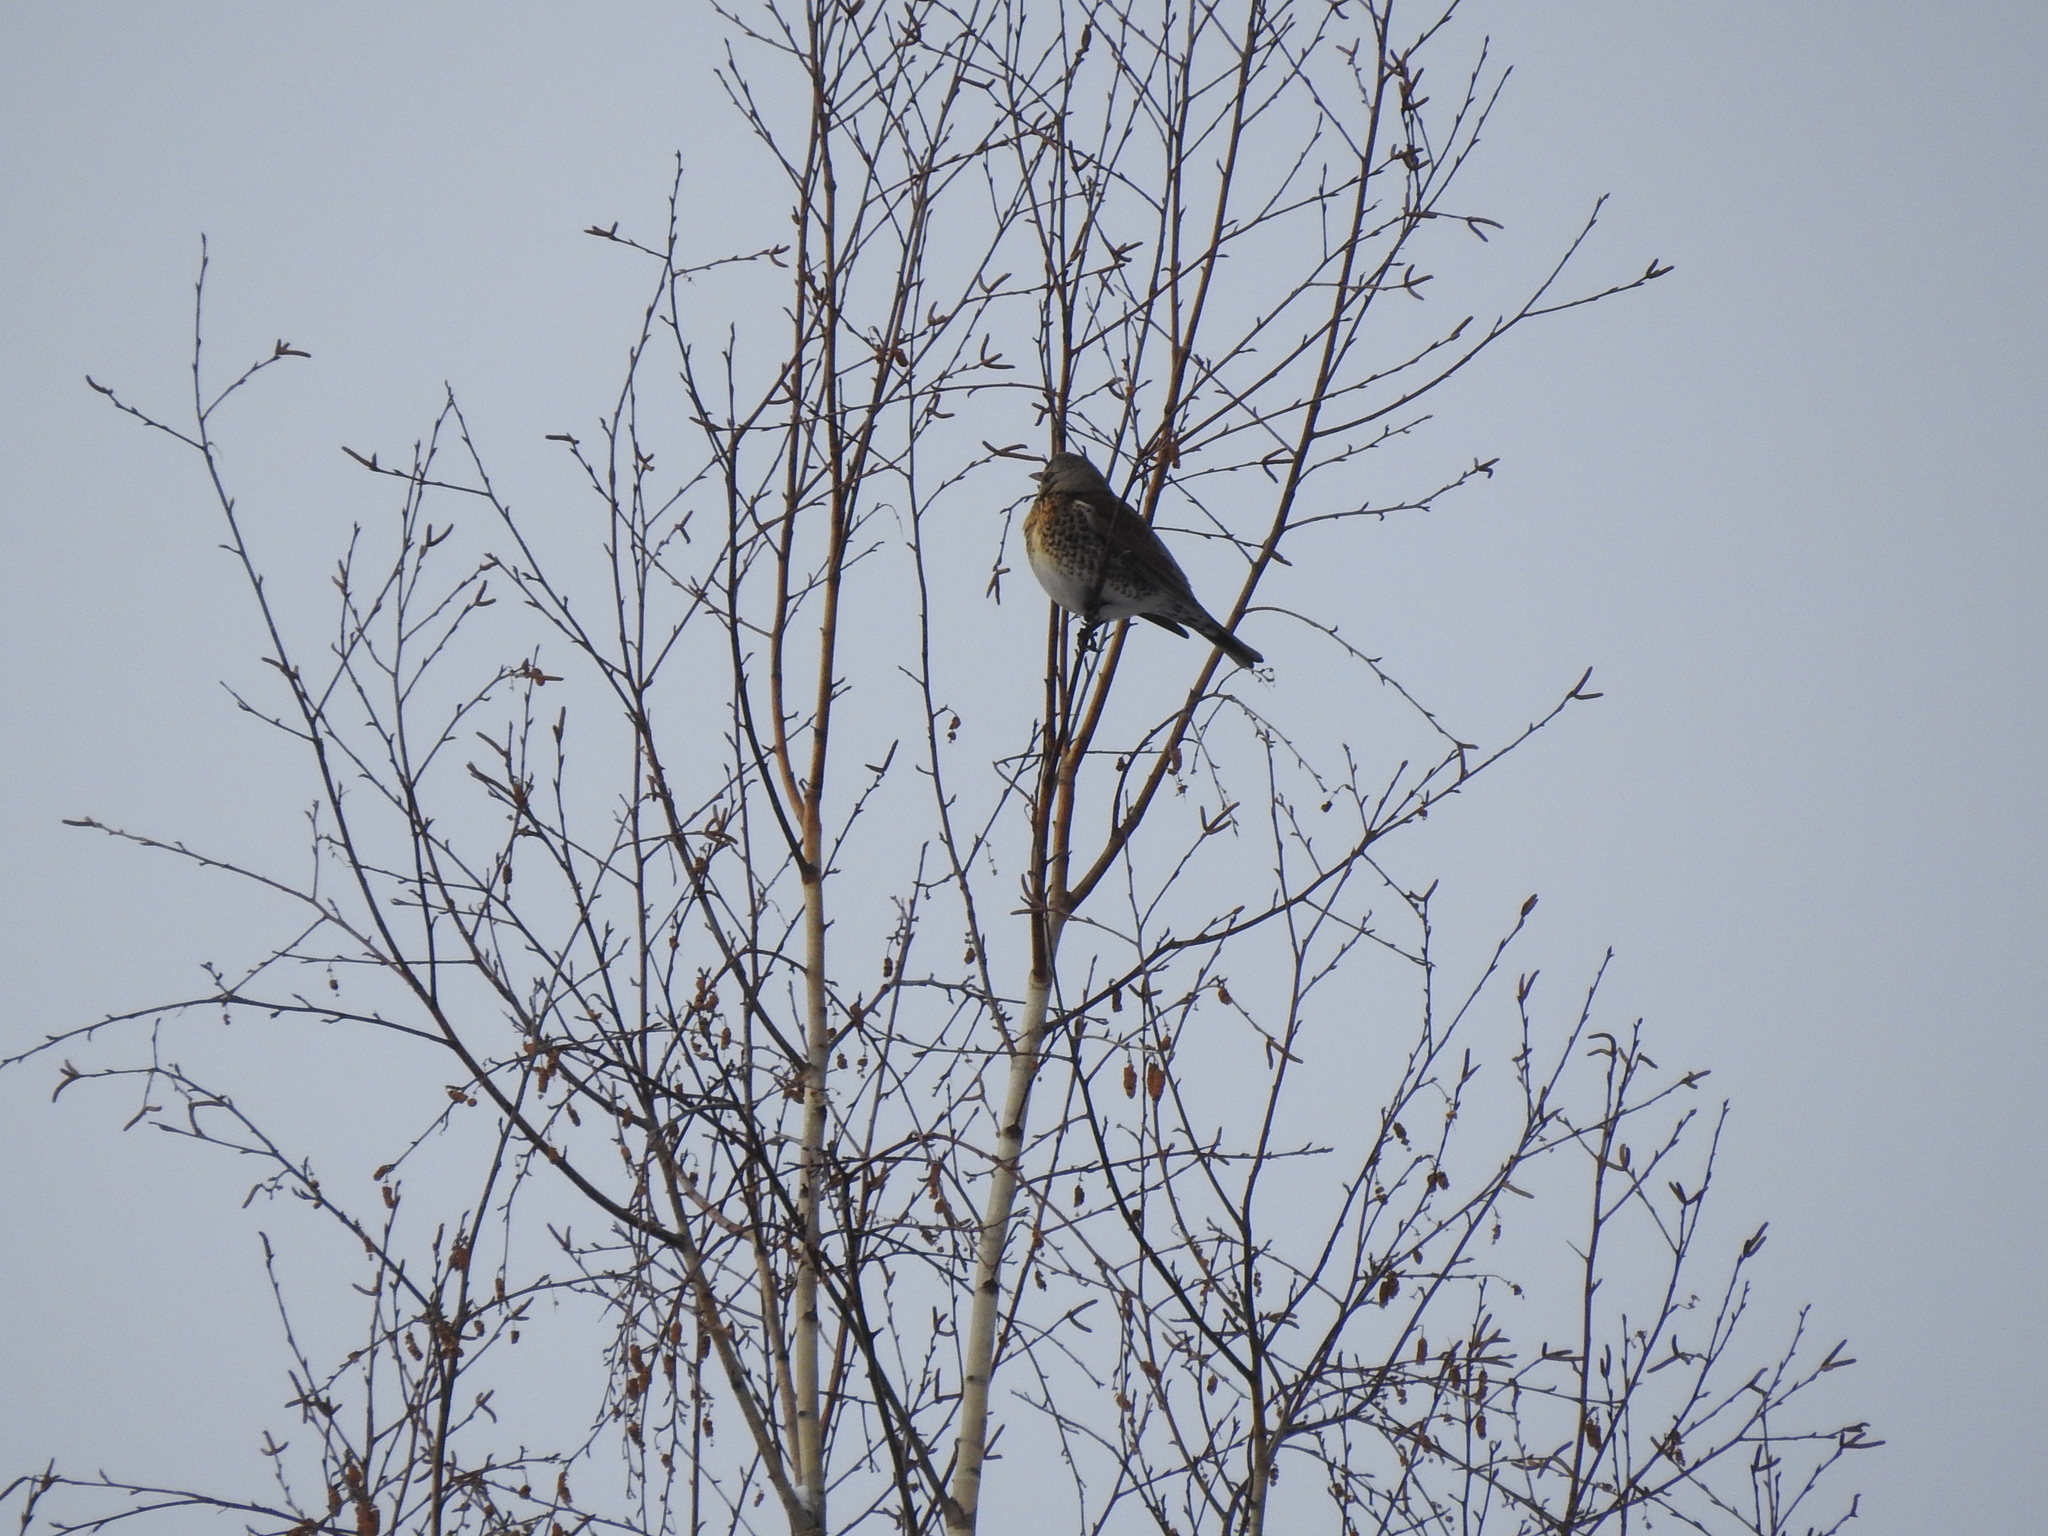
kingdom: Animalia
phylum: Chordata
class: Aves
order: Passeriformes
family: Turdidae
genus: Turdus
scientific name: Turdus pilaris
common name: Fieldfare
